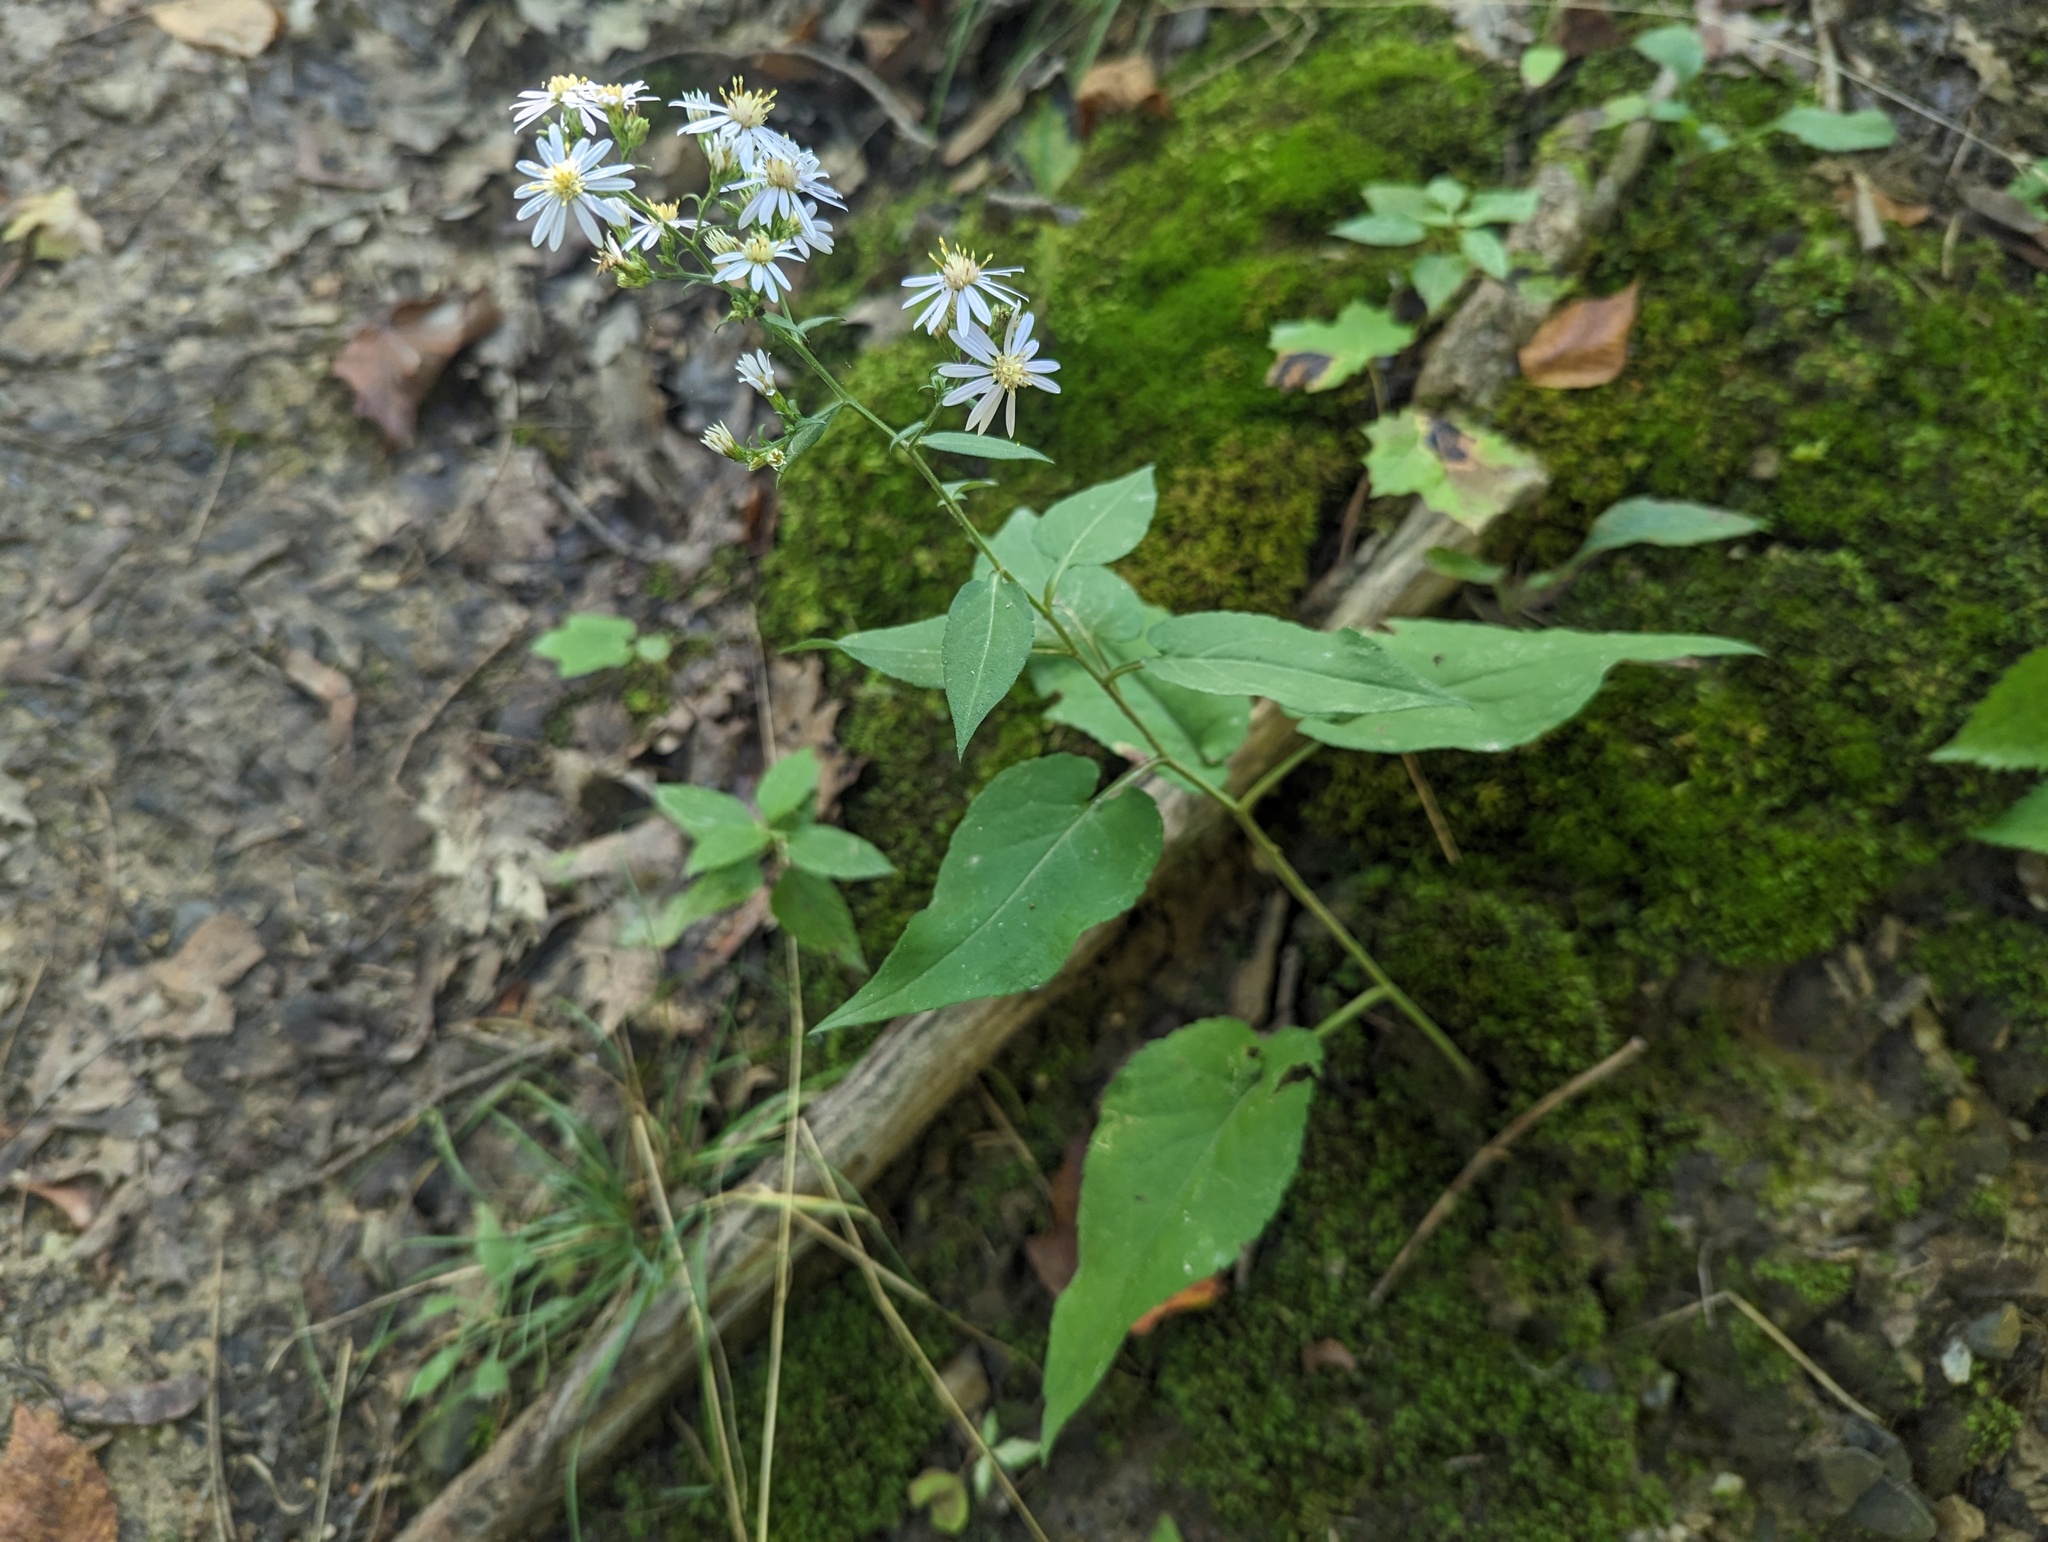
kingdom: Plantae
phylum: Tracheophyta
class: Magnoliopsida
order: Asterales
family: Asteraceae
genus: Symphyotrichum
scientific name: Symphyotrichum drummondii
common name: Drummond's aster
